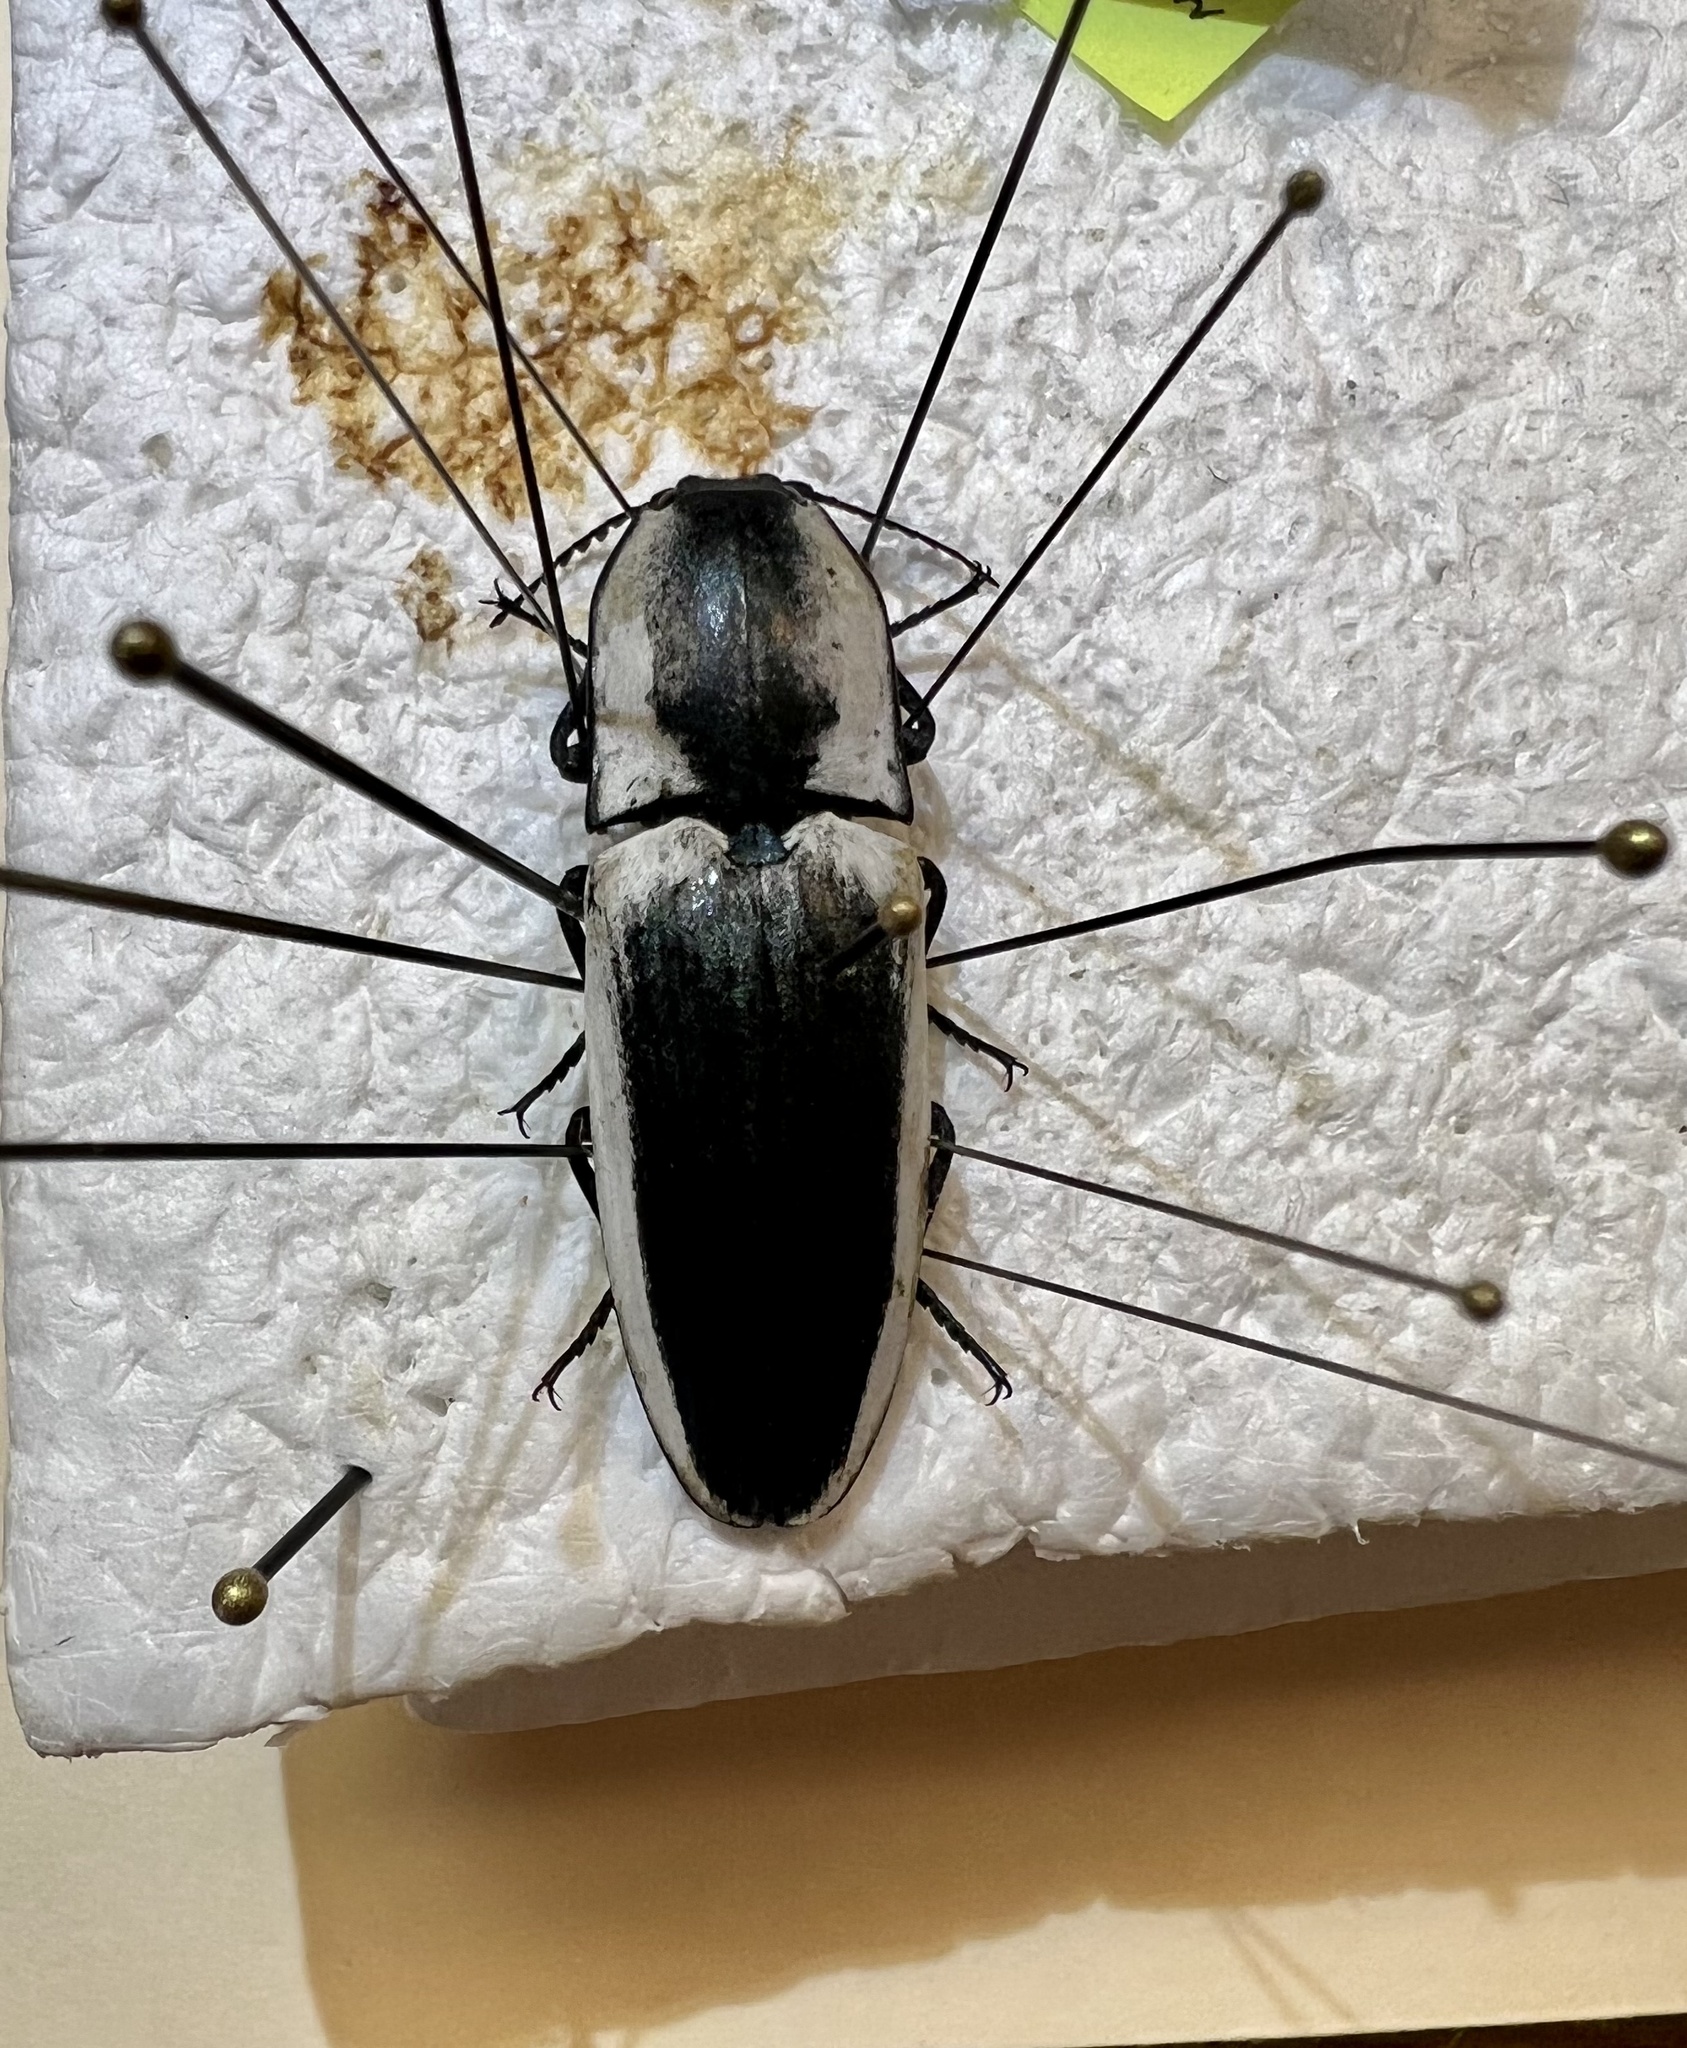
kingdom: Animalia
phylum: Arthropoda
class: Insecta
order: Coleoptera
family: Elateridae
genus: Chalcolepidius
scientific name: Chalcolepidius webbi
